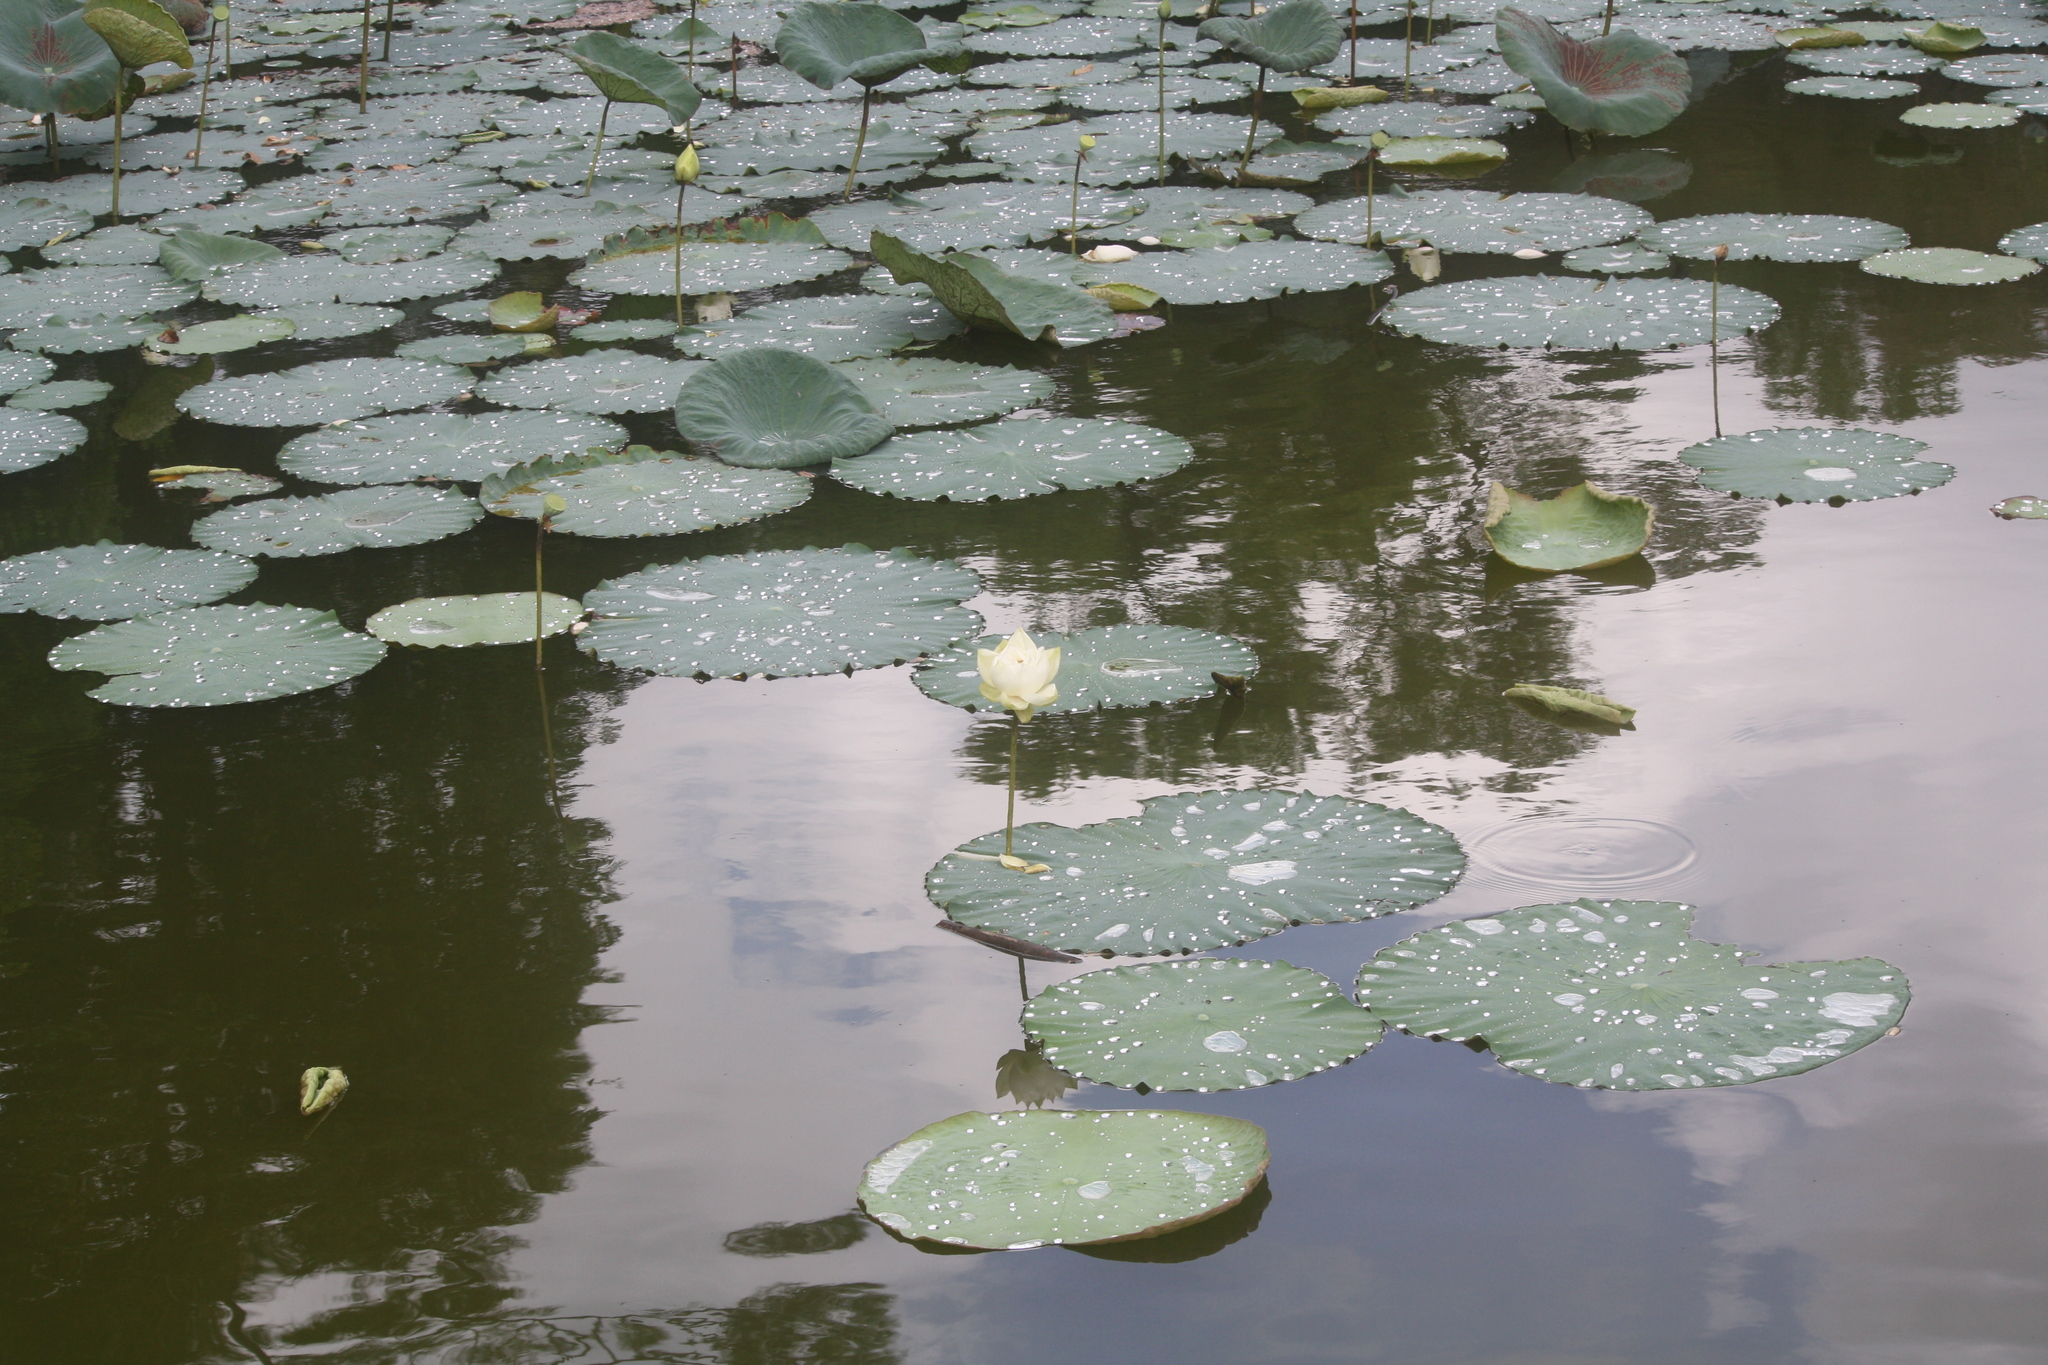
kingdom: Plantae
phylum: Tracheophyta
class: Magnoliopsida
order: Proteales
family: Nelumbonaceae
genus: Nelumbo
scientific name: Nelumbo nucifera
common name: Sacred lotus
